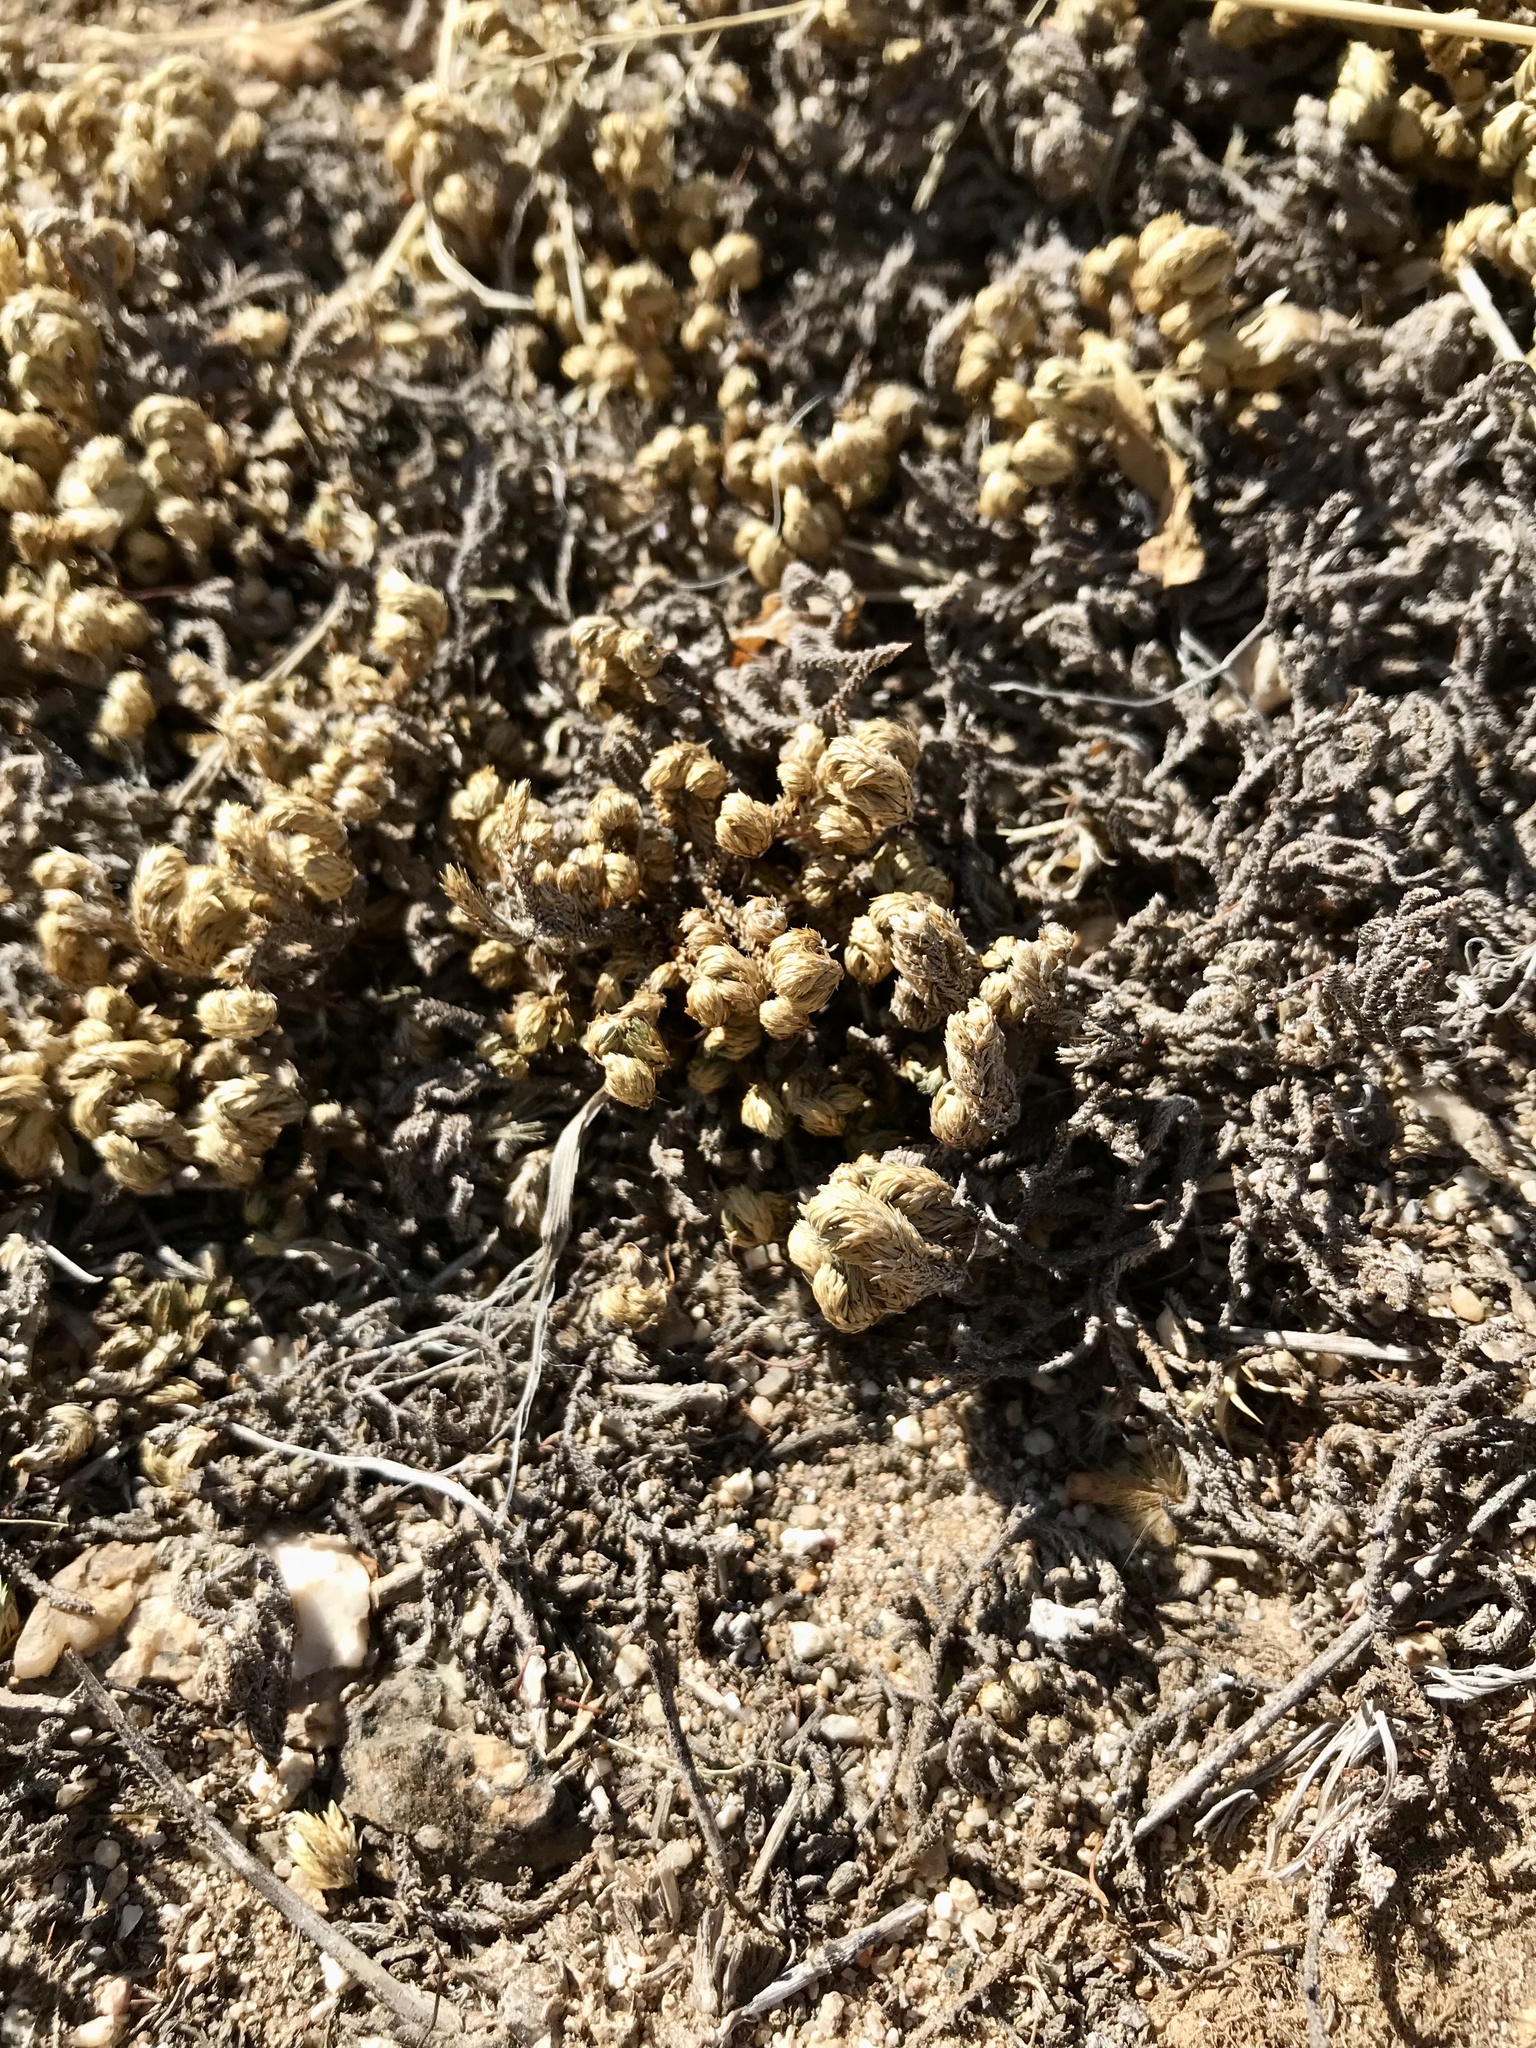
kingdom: Plantae
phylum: Tracheophyta
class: Lycopodiopsida
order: Selaginellales
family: Selaginellaceae
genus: Selaginella
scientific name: Selaginella arizonica
